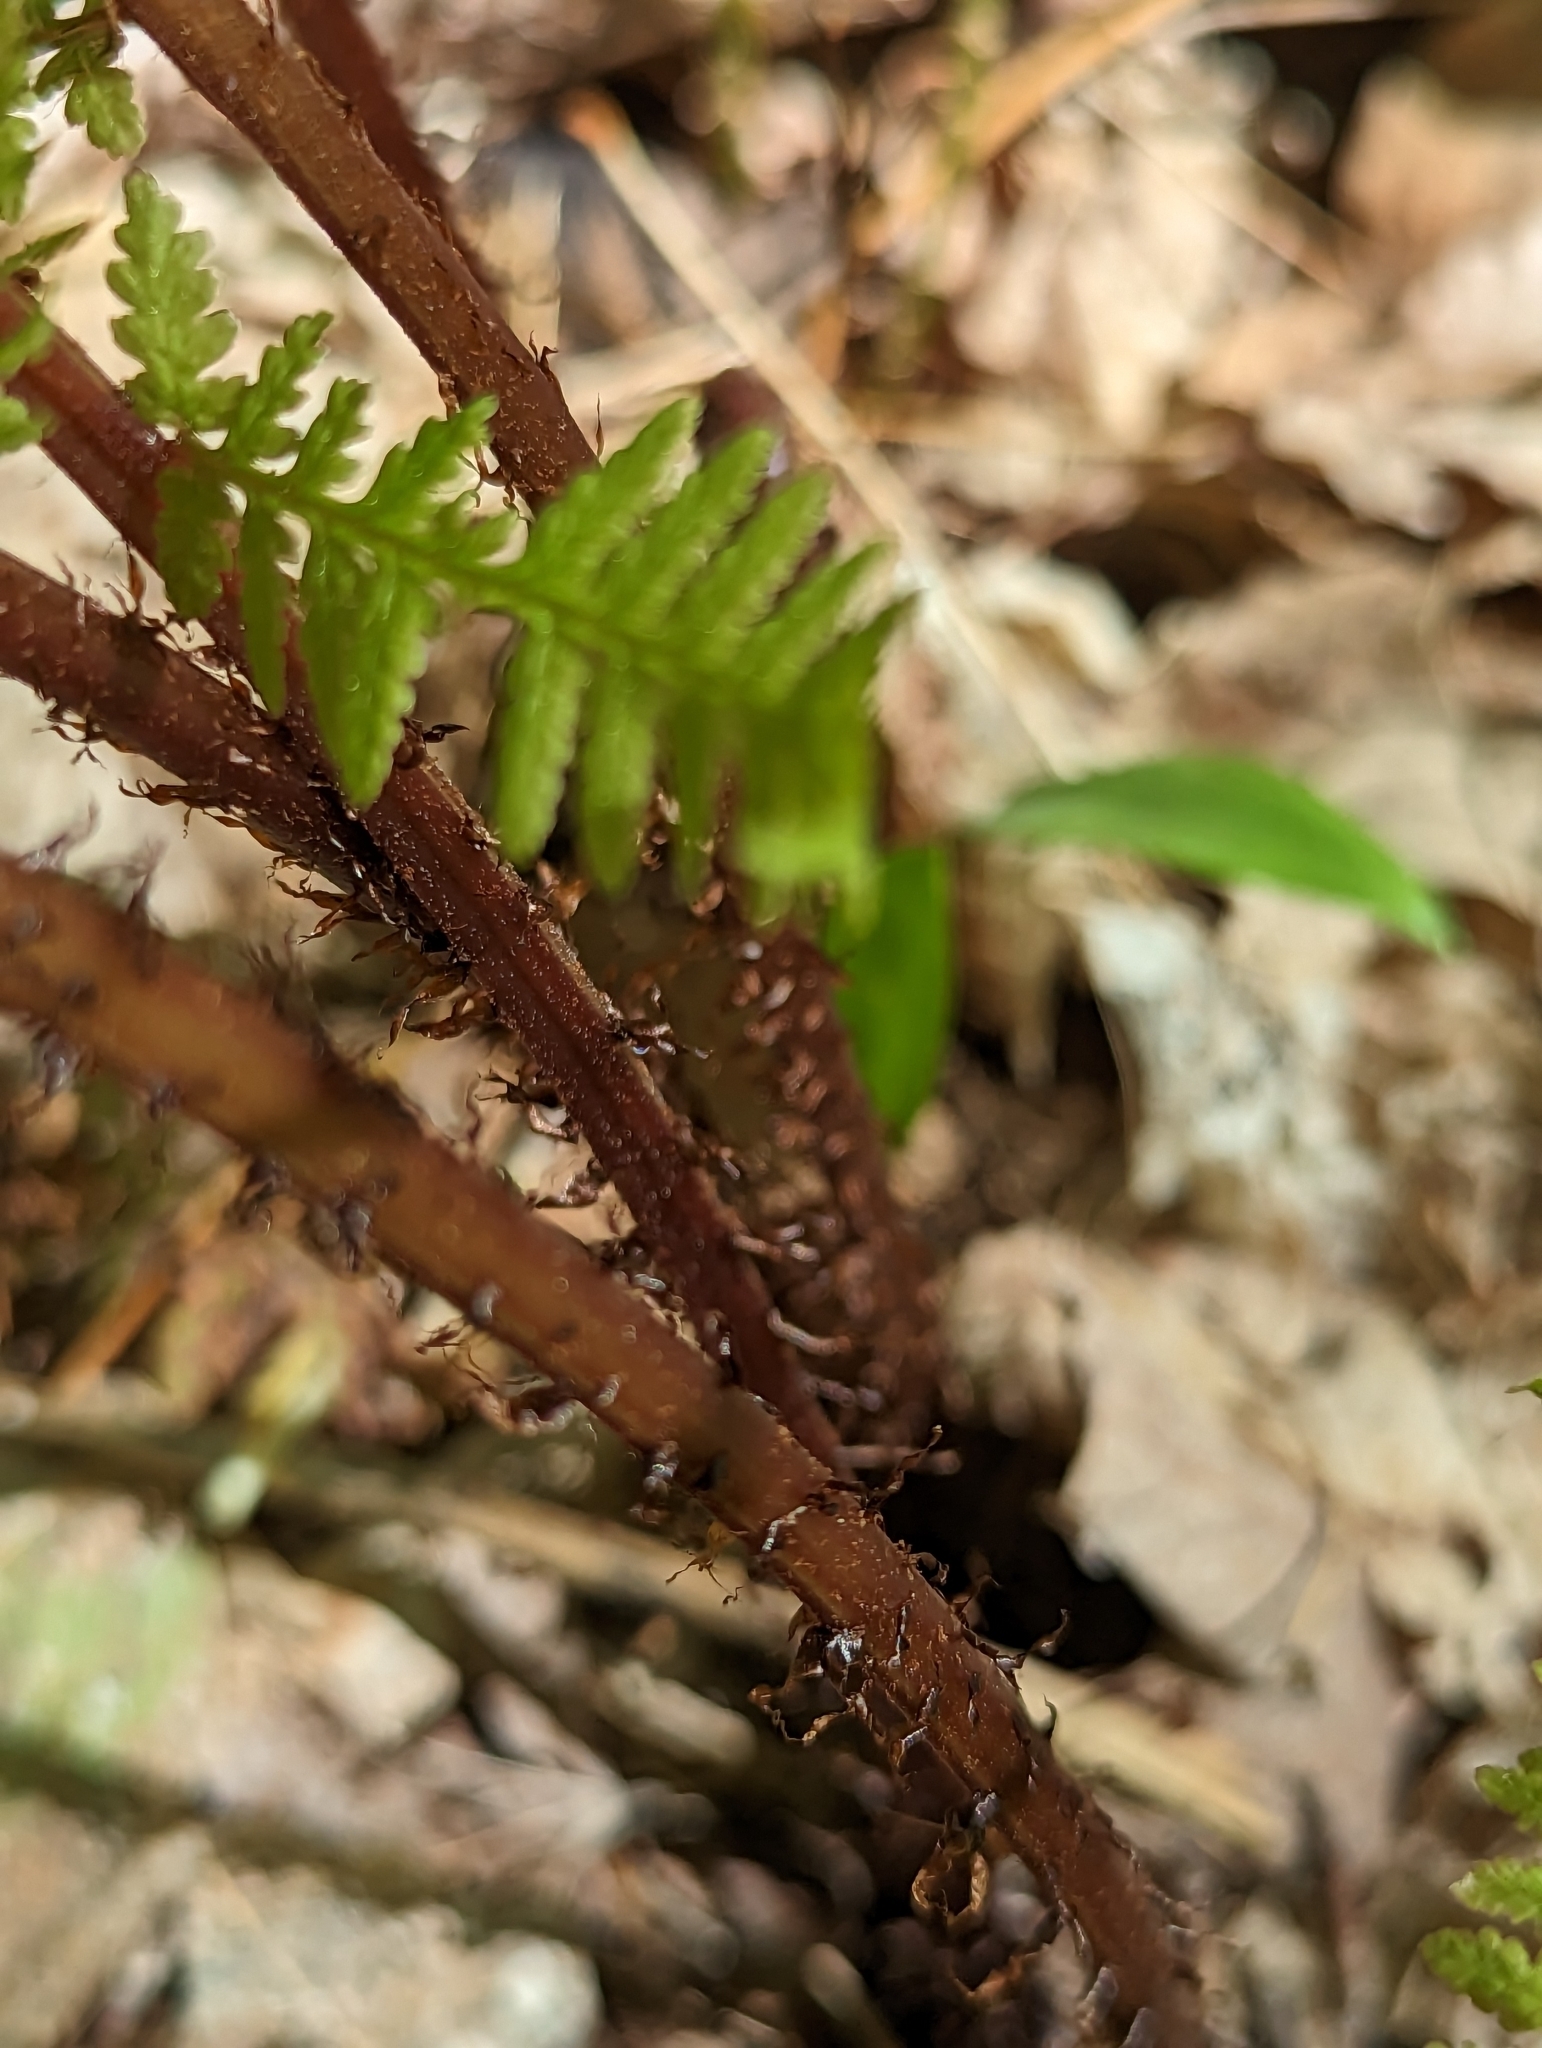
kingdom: Plantae
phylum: Tracheophyta
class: Polypodiopsida
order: Polypodiales
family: Athyriaceae
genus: Athyrium
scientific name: Athyrium angustum
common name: Northern lady fern
